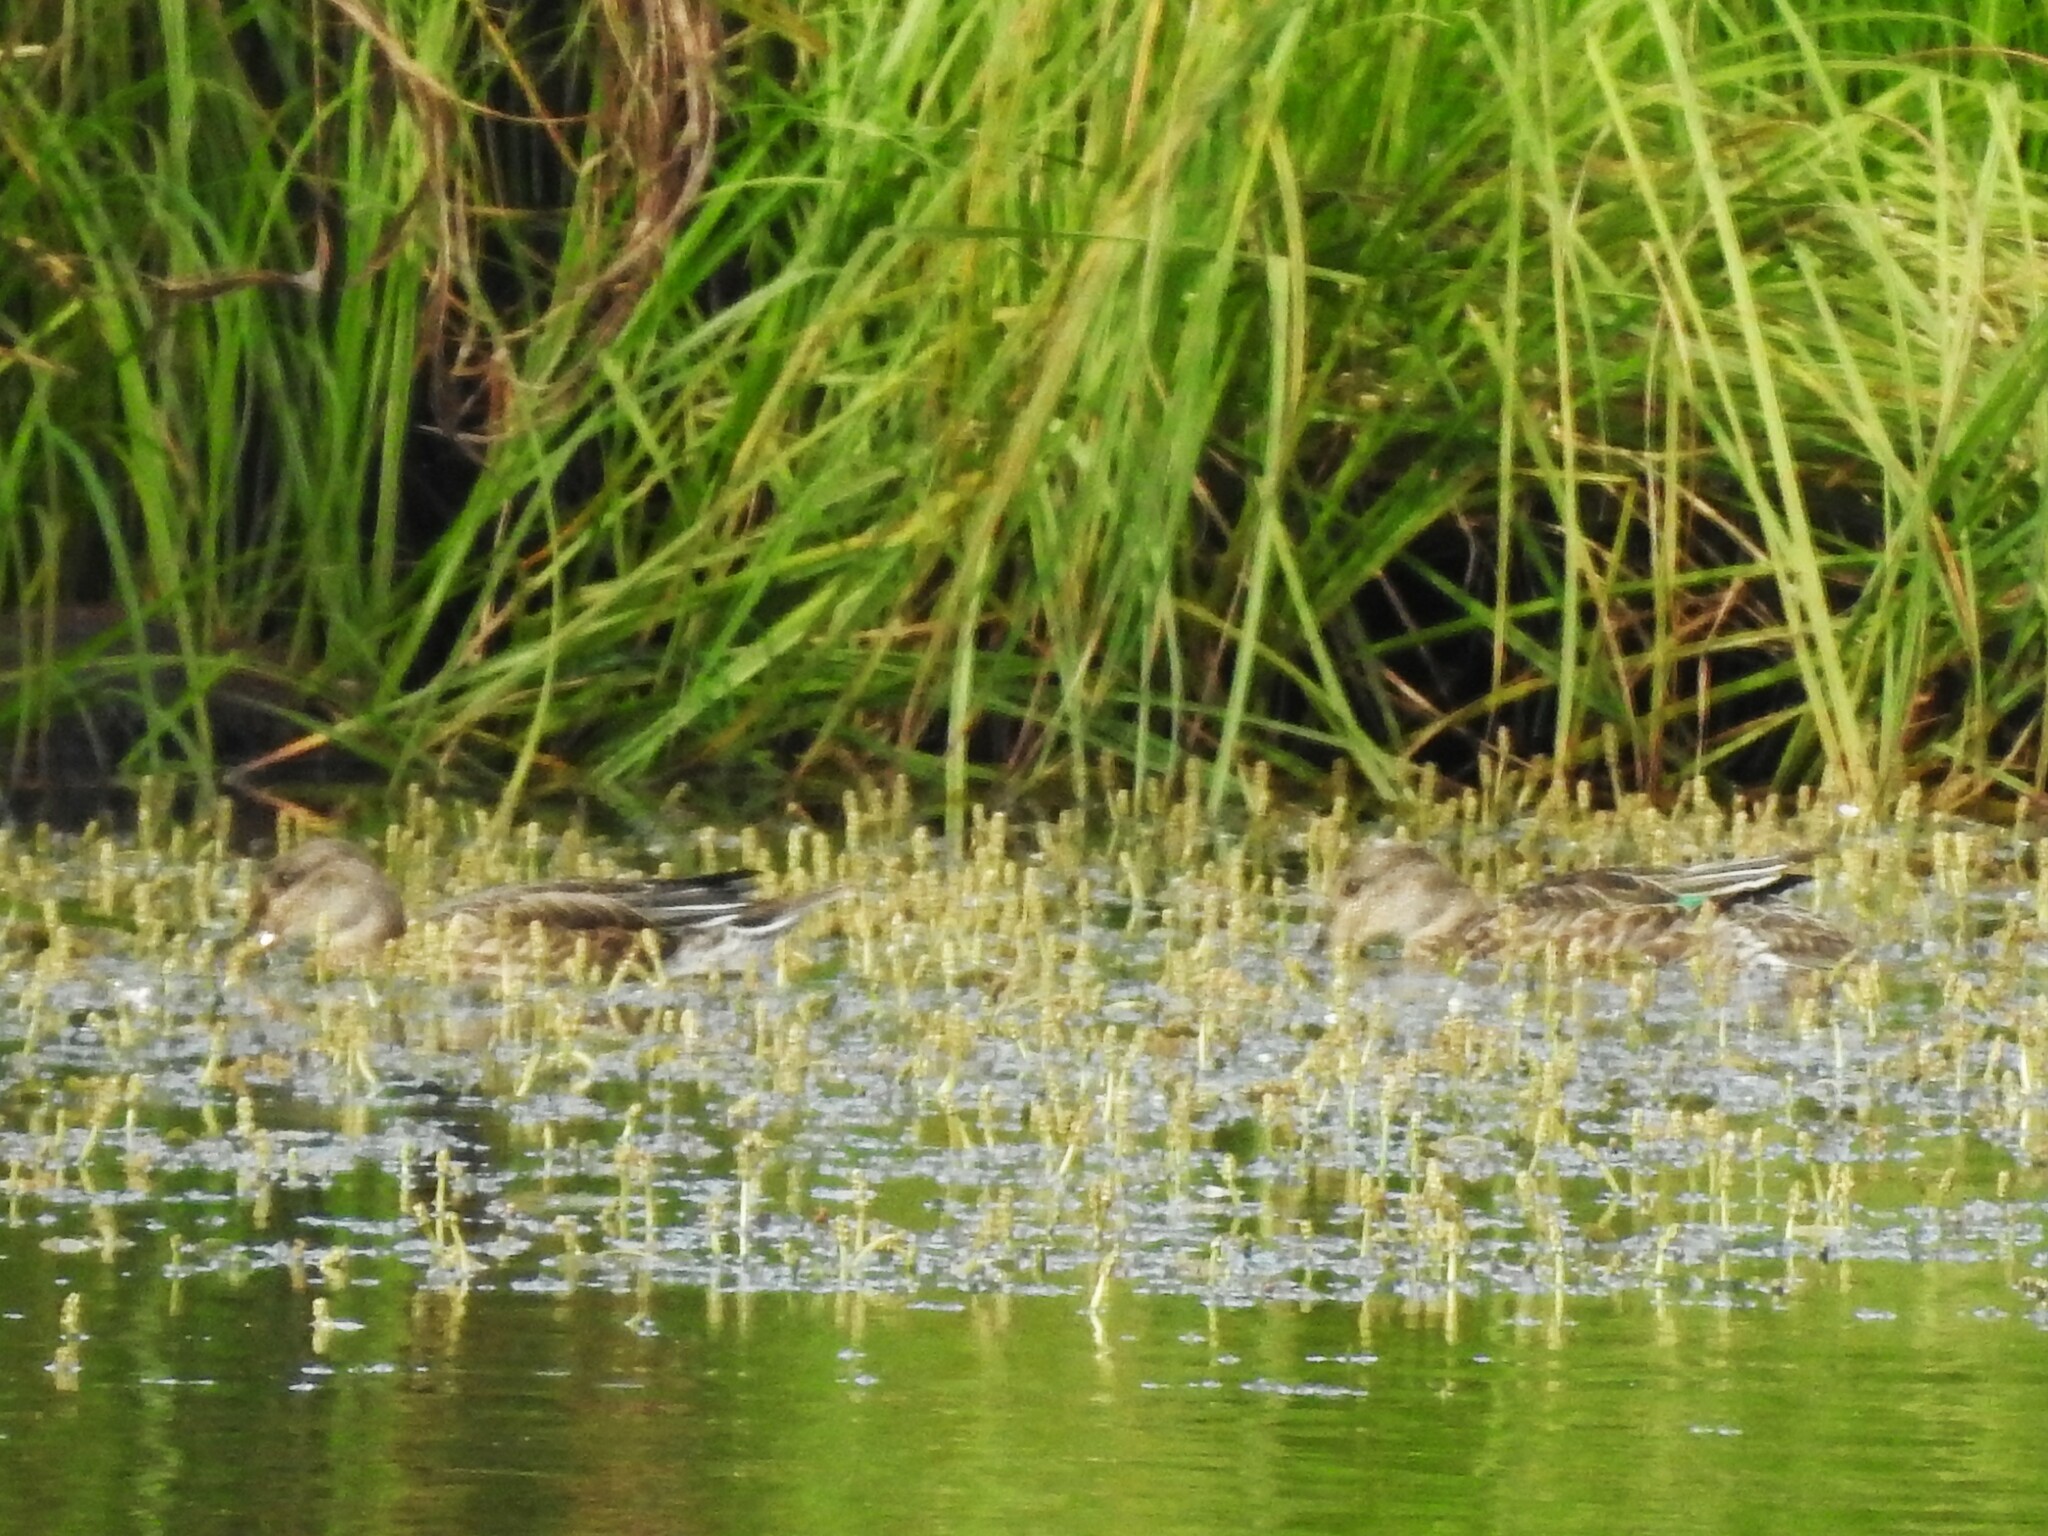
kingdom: Animalia
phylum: Chordata
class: Aves
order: Anseriformes
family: Anatidae
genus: Anas
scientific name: Anas crecca
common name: Eurasian teal
